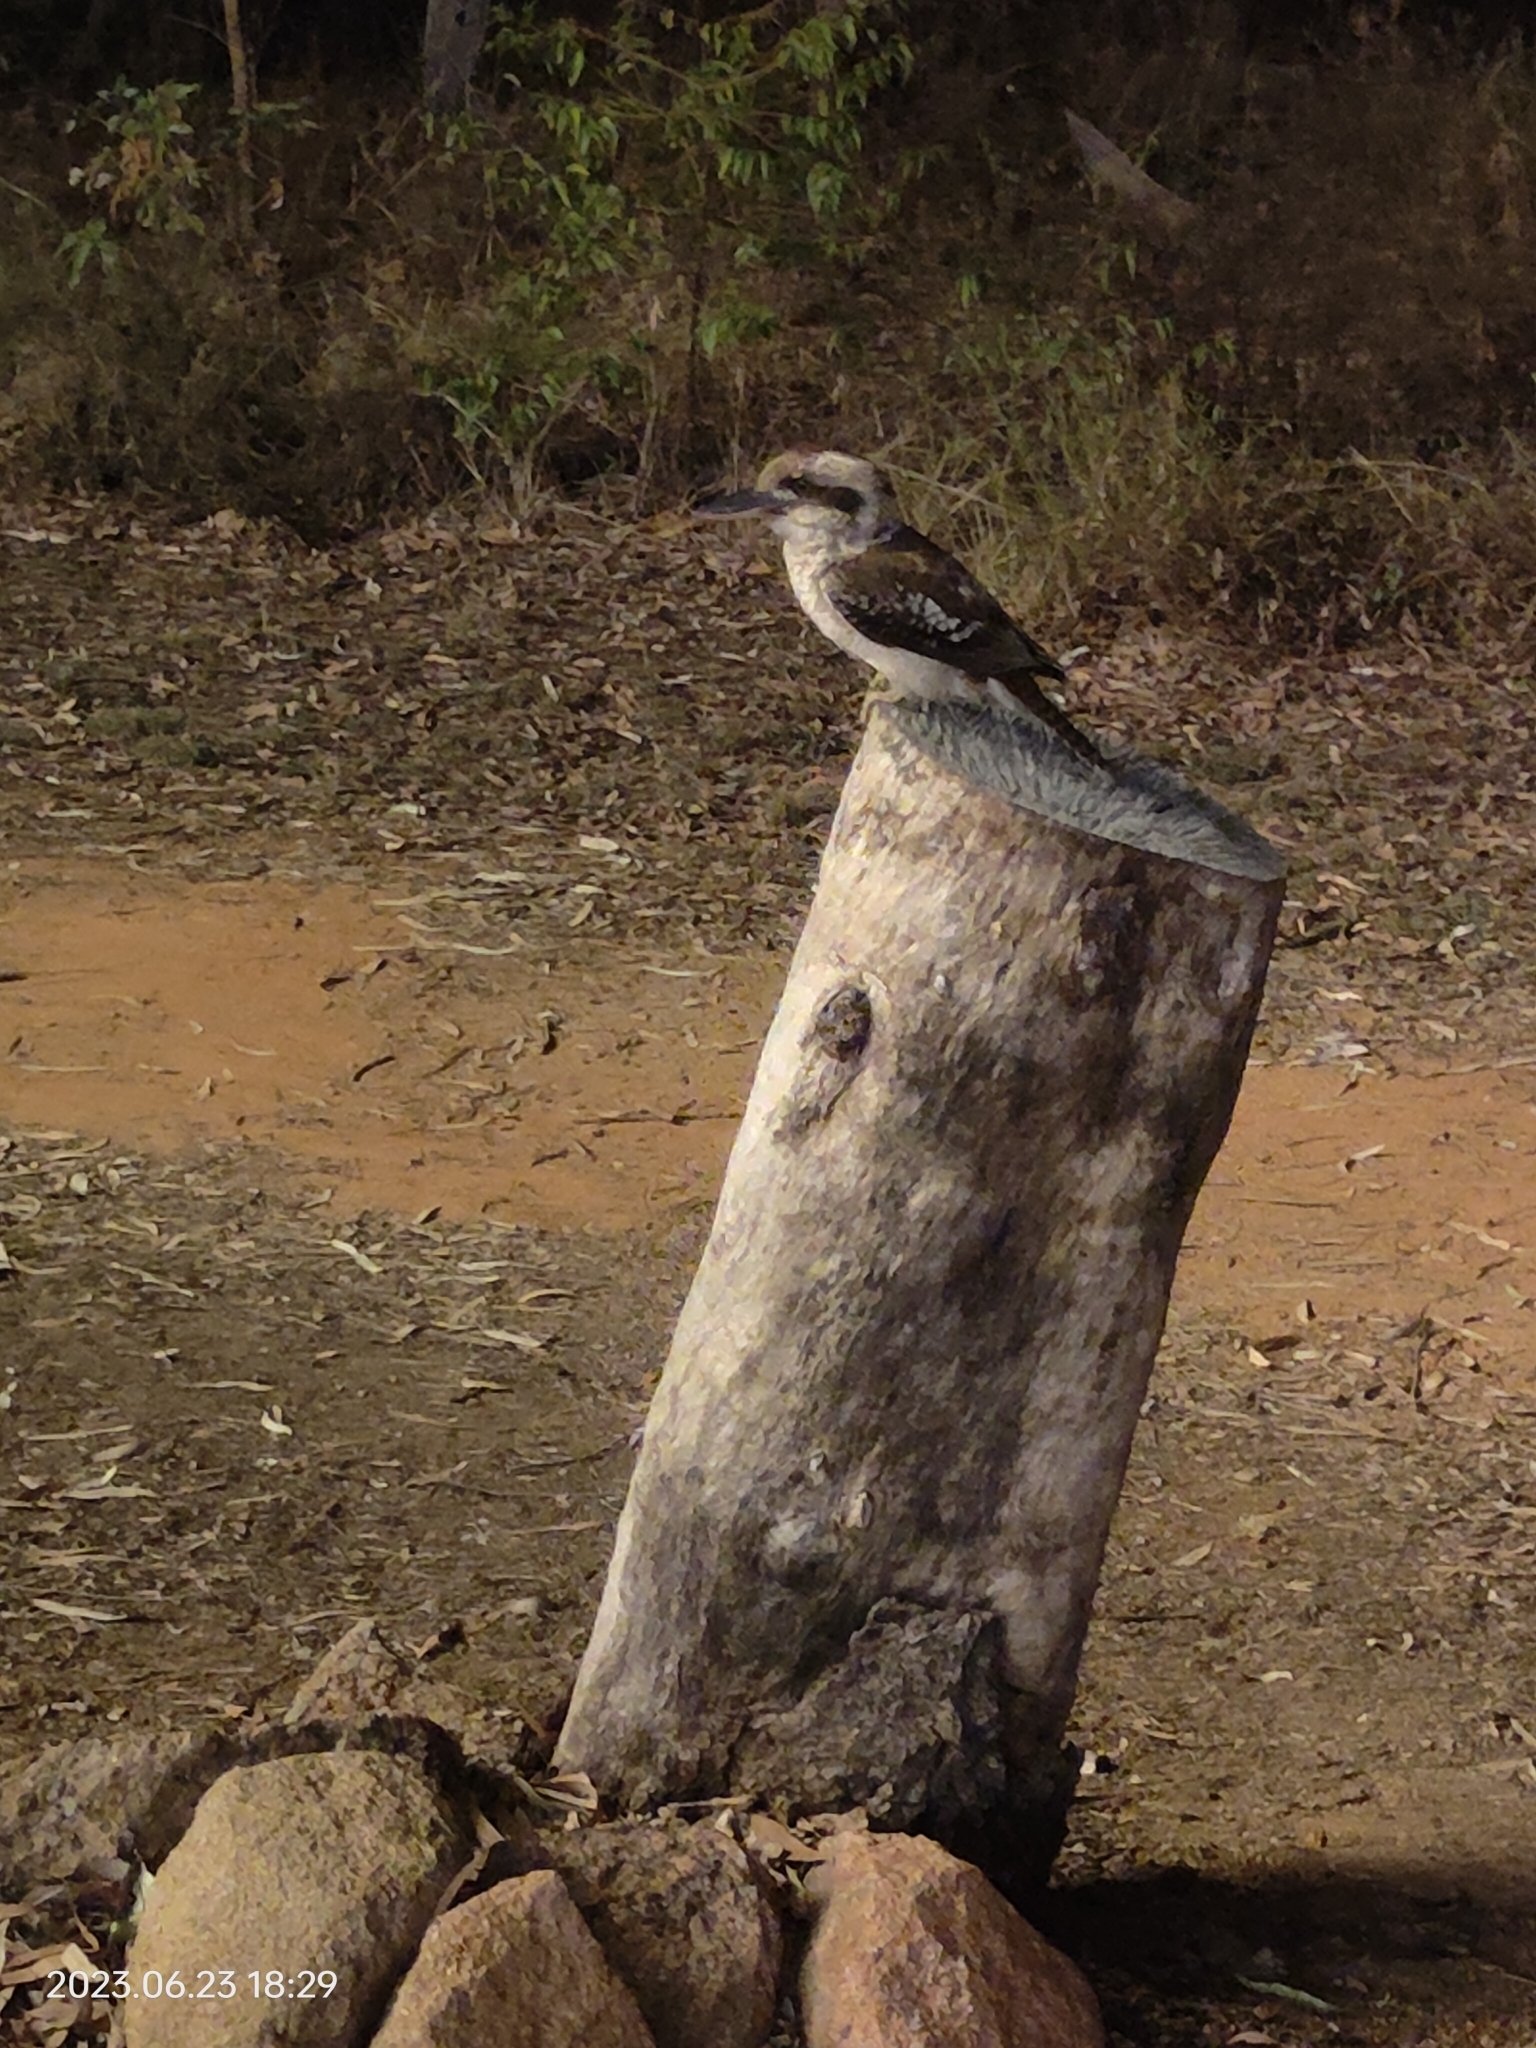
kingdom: Animalia
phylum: Chordata
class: Aves
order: Coraciiformes
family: Alcedinidae
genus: Dacelo
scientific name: Dacelo novaeguineae
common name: Laughing kookaburra
